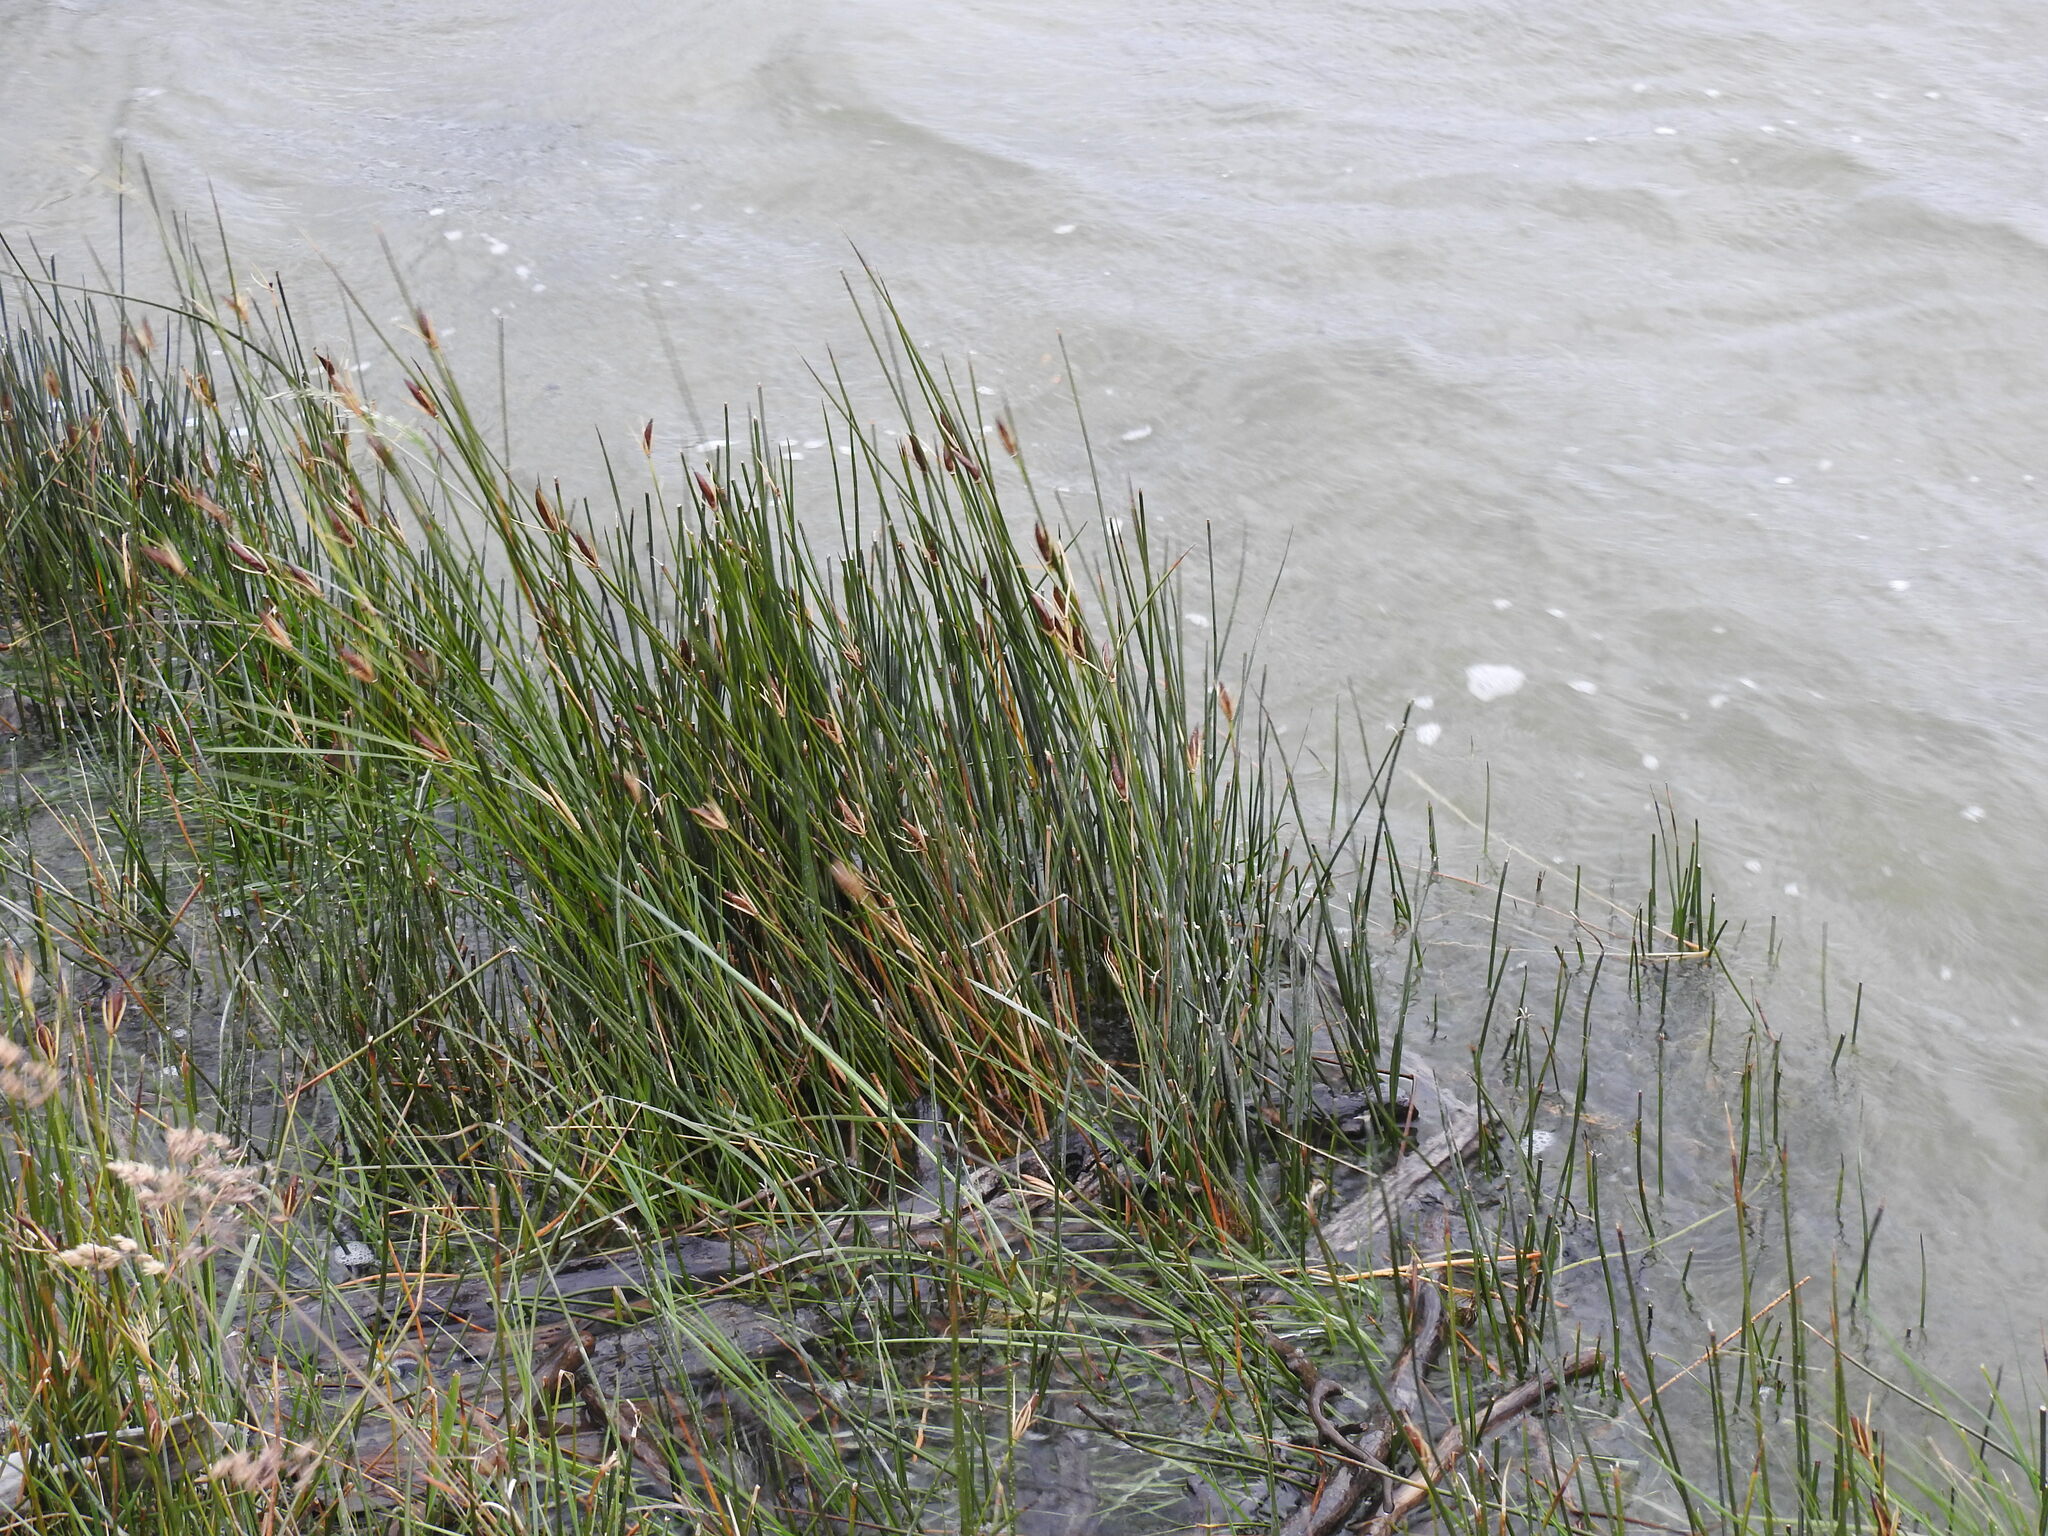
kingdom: Plantae
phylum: Tracheophyta
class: Liliopsida
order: Poales
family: Juncaceae
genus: Marsippospermum
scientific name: Marsippospermum grandiflorum
